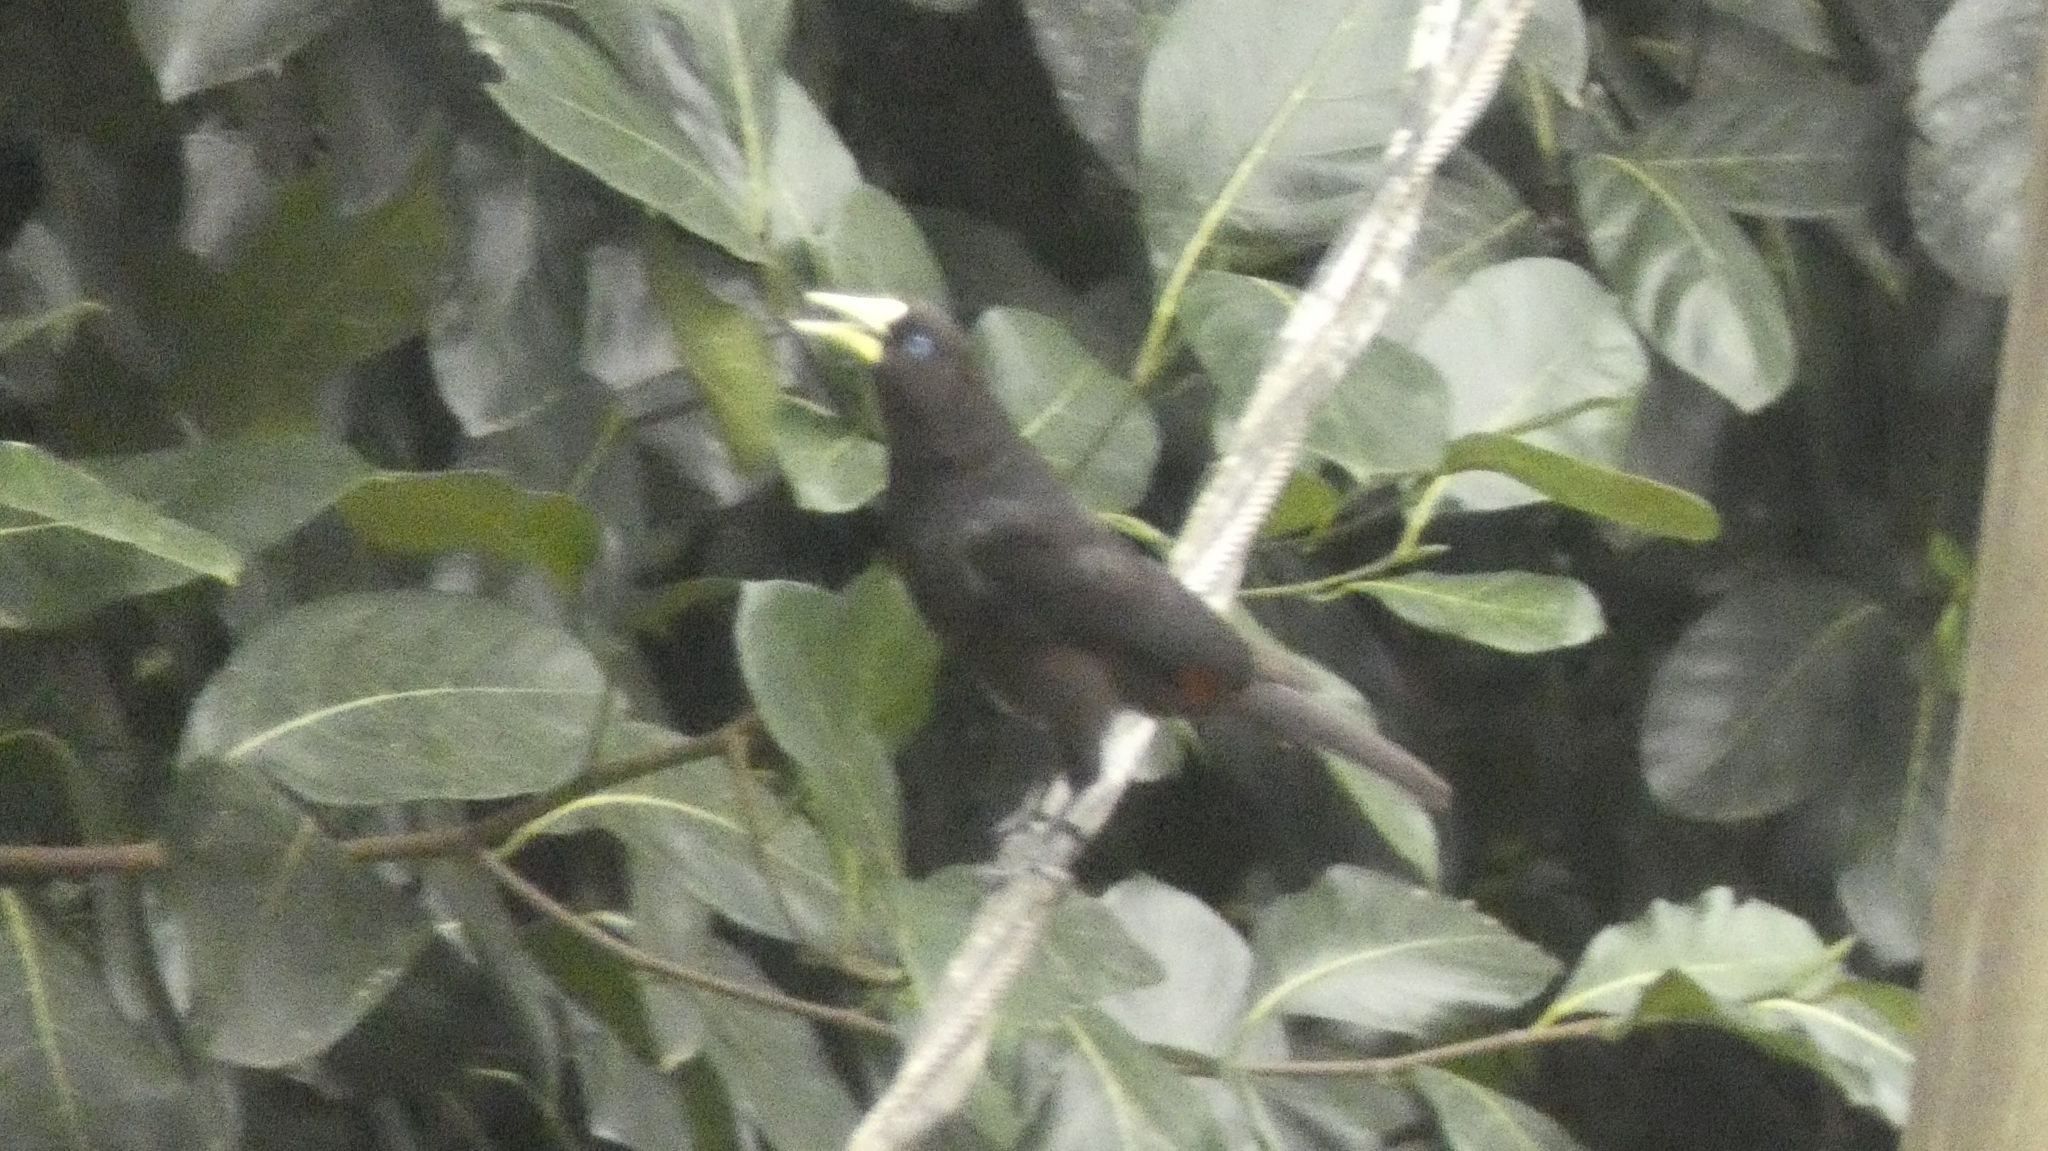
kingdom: Animalia
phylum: Chordata
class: Aves
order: Passeriformes
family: Icteridae
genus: Cacicus
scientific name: Cacicus haemorrhous
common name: Red-rumped cacique
